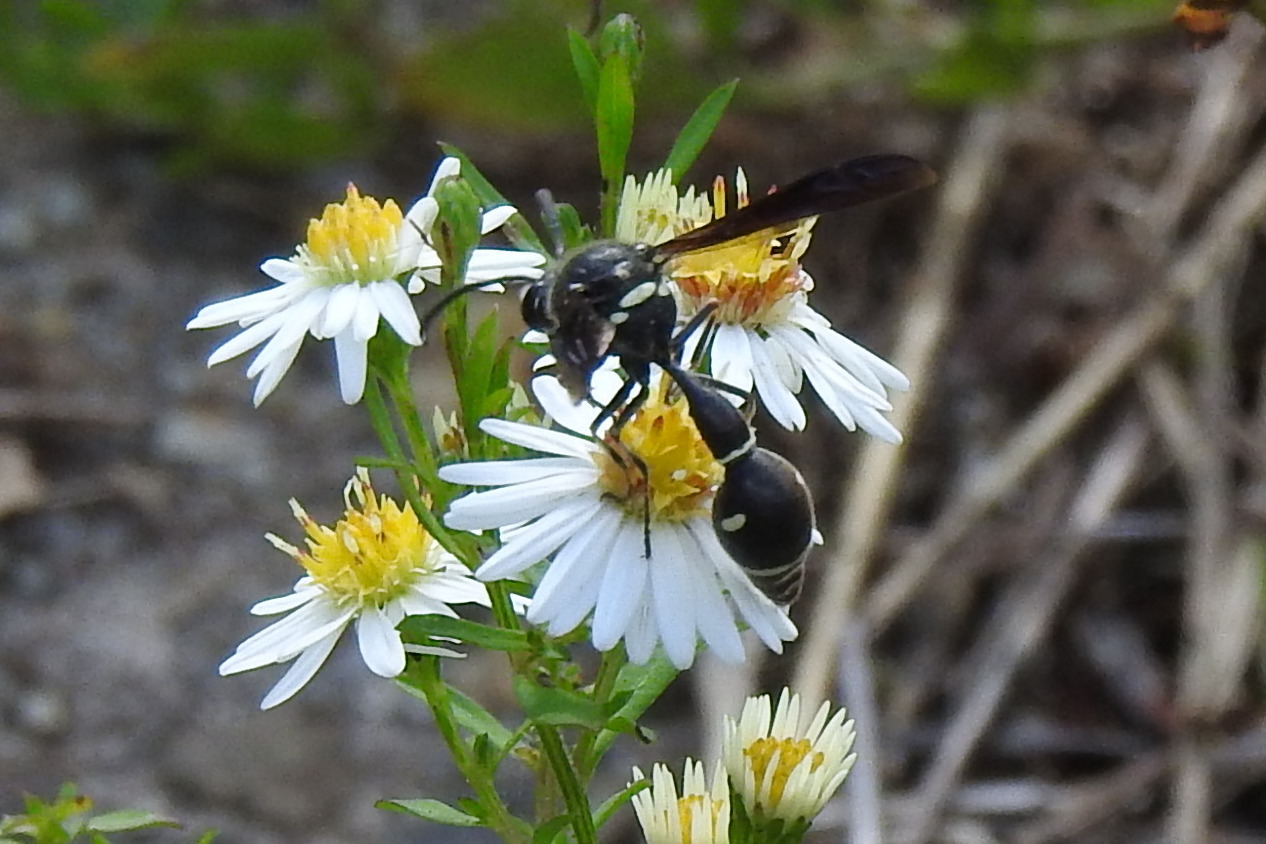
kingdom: Animalia
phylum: Arthropoda
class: Insecta
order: Hymenoptera
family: Vespidae
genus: Eumenes
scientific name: Eumenes fraternus
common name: Fraternal potter wasp
